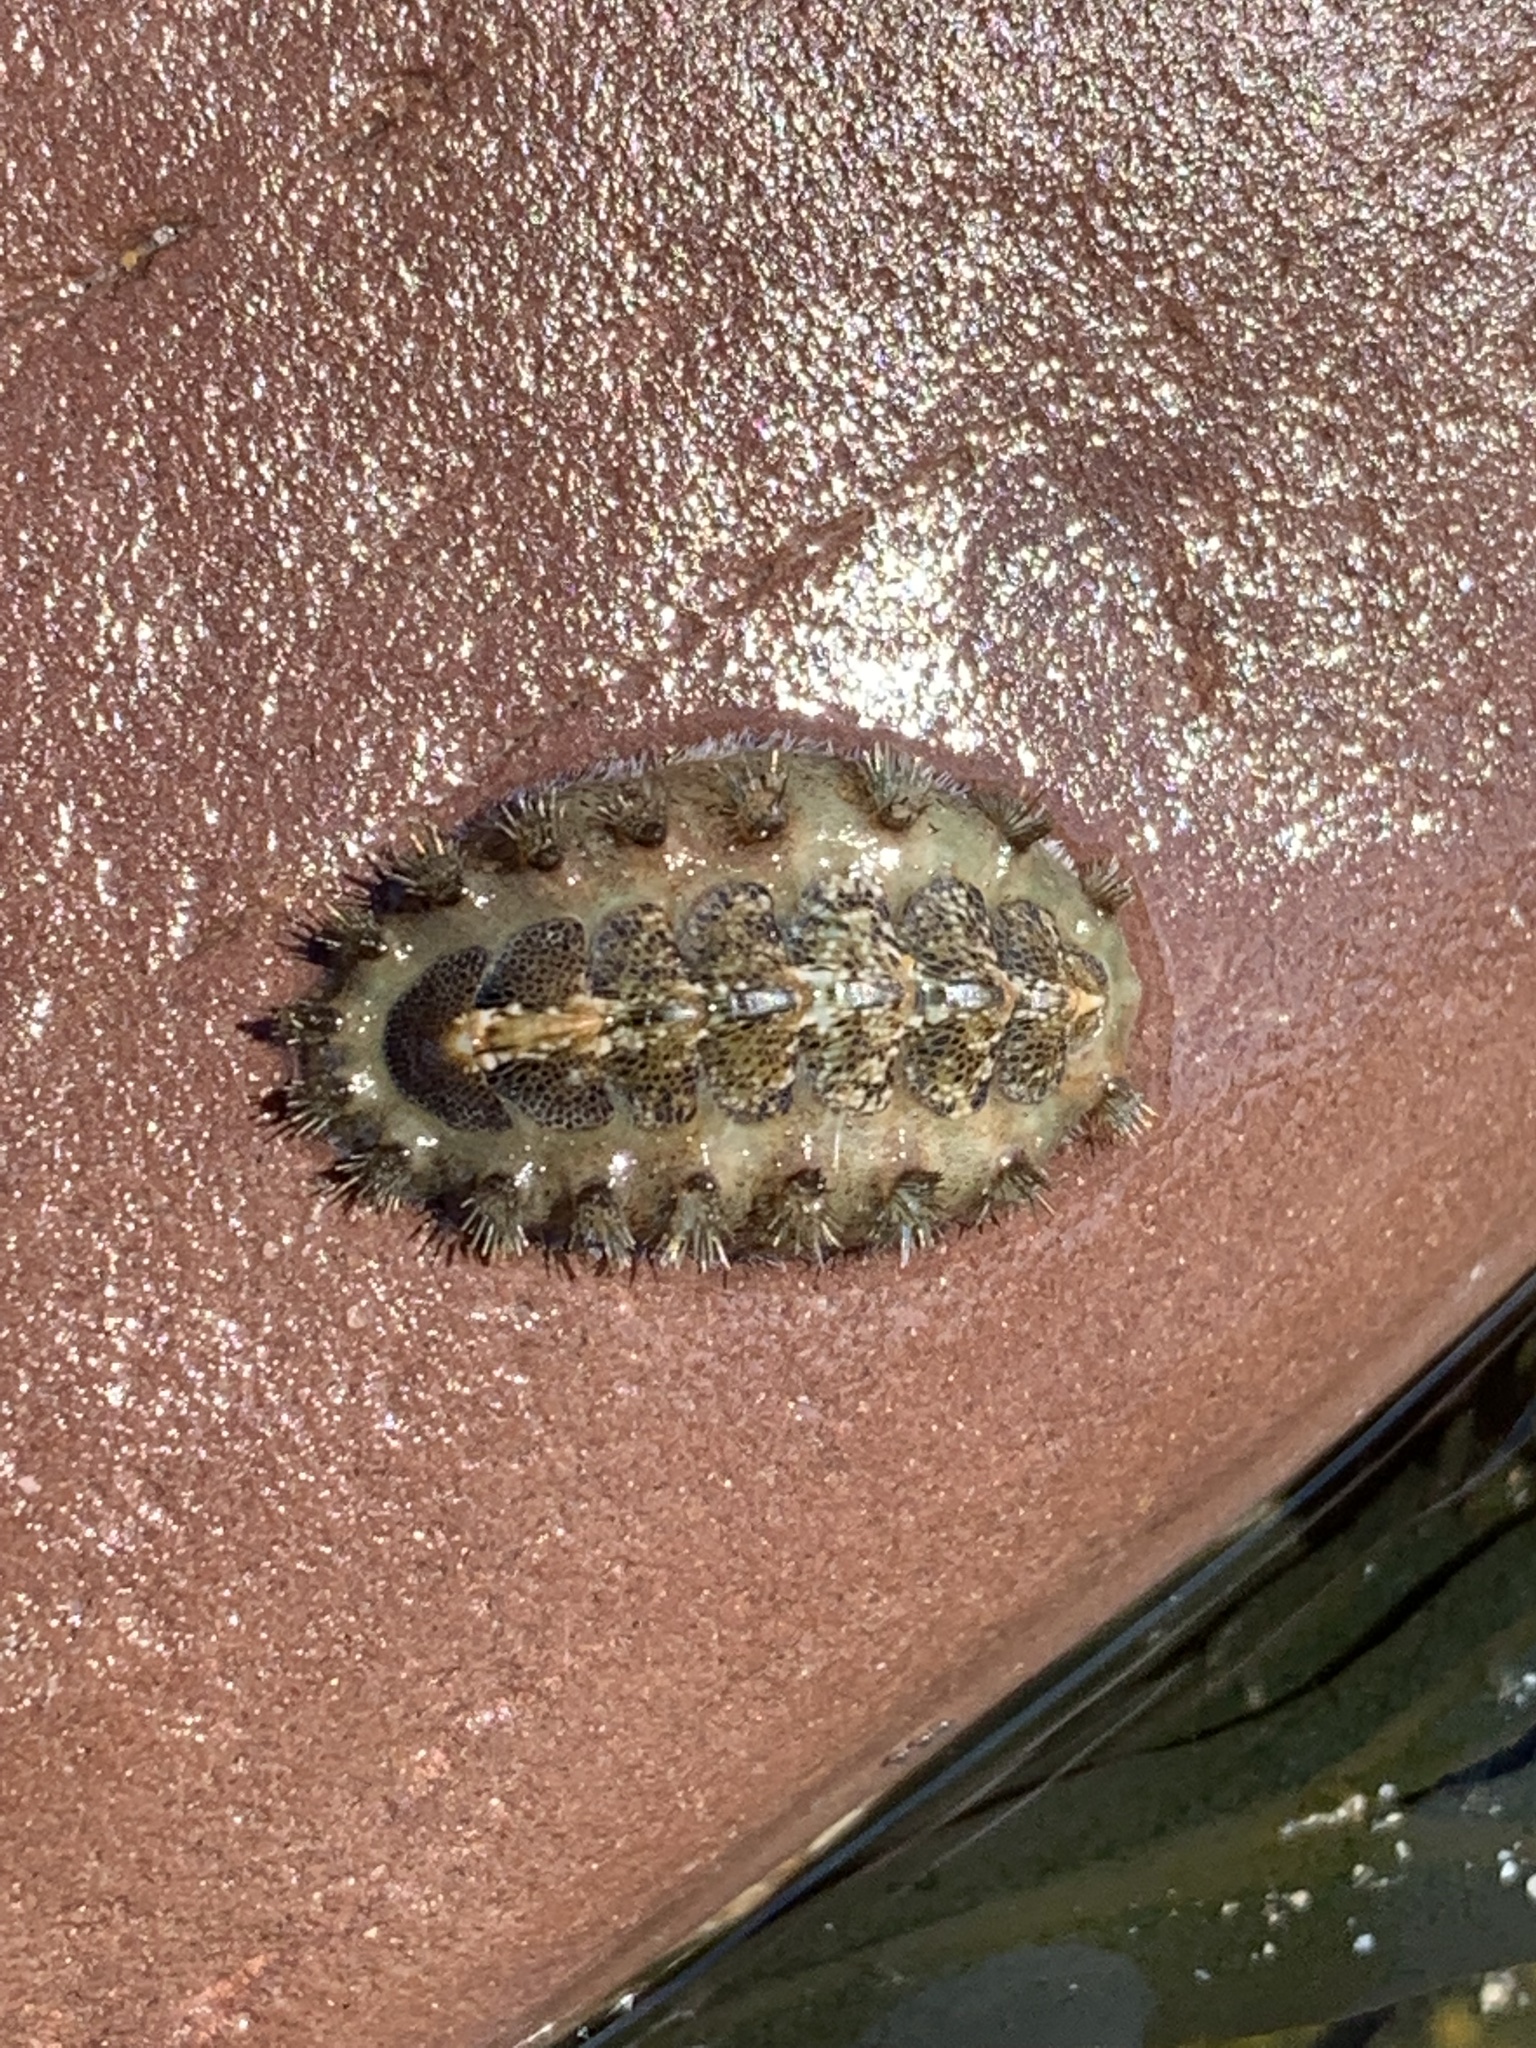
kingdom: Animalia
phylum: Mollusca
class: Polyplacophora
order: Chitonida
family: Acanthochitonidae
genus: Acanthochitona
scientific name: Acanthochitona crinita
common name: Bristly mail chiton
